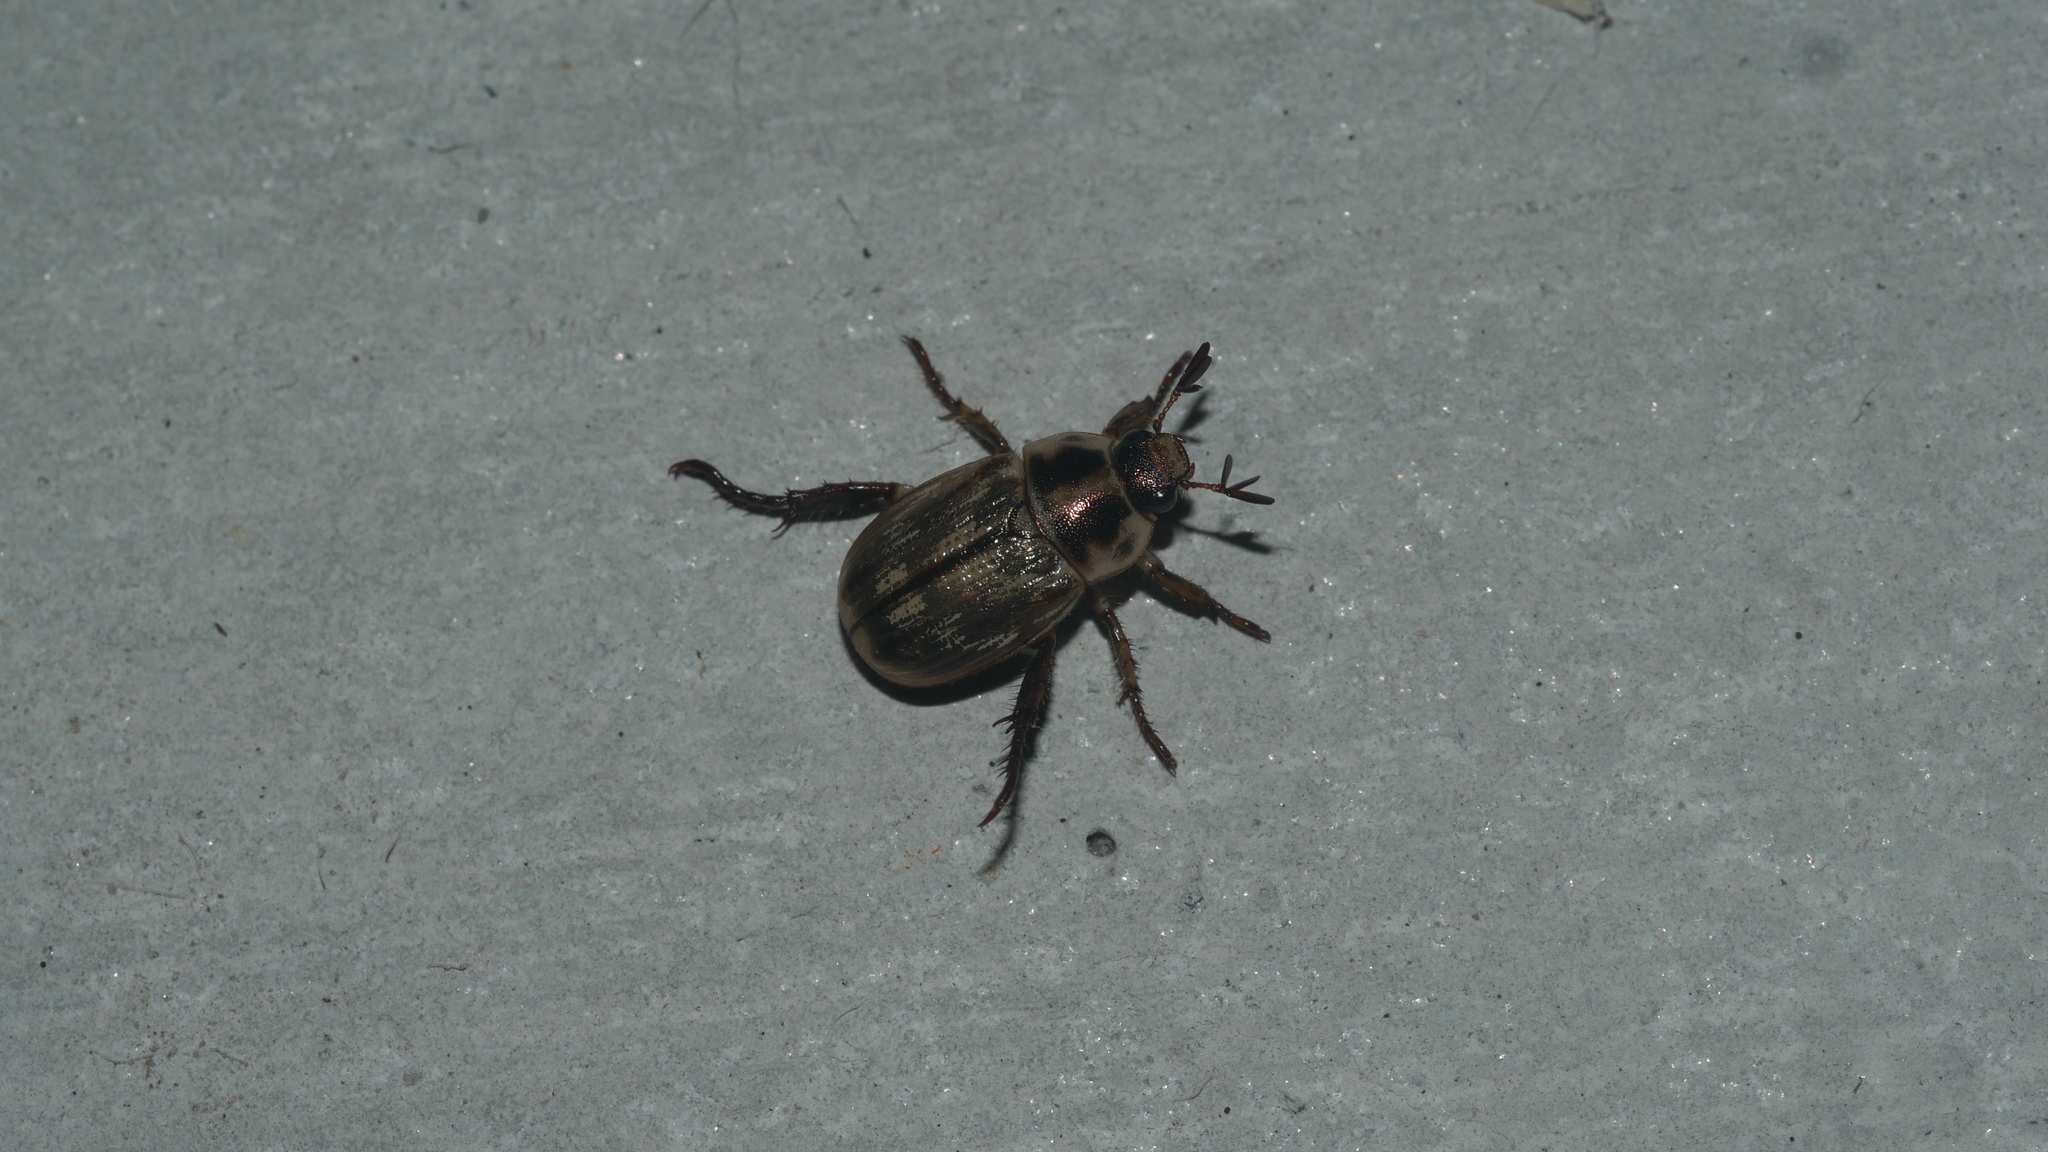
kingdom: Animalia
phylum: Arthropoda
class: Insecta
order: Coleoptera
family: Scarabaeidae
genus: Exomala
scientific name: Exomala orientalis
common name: Oriental beetle
